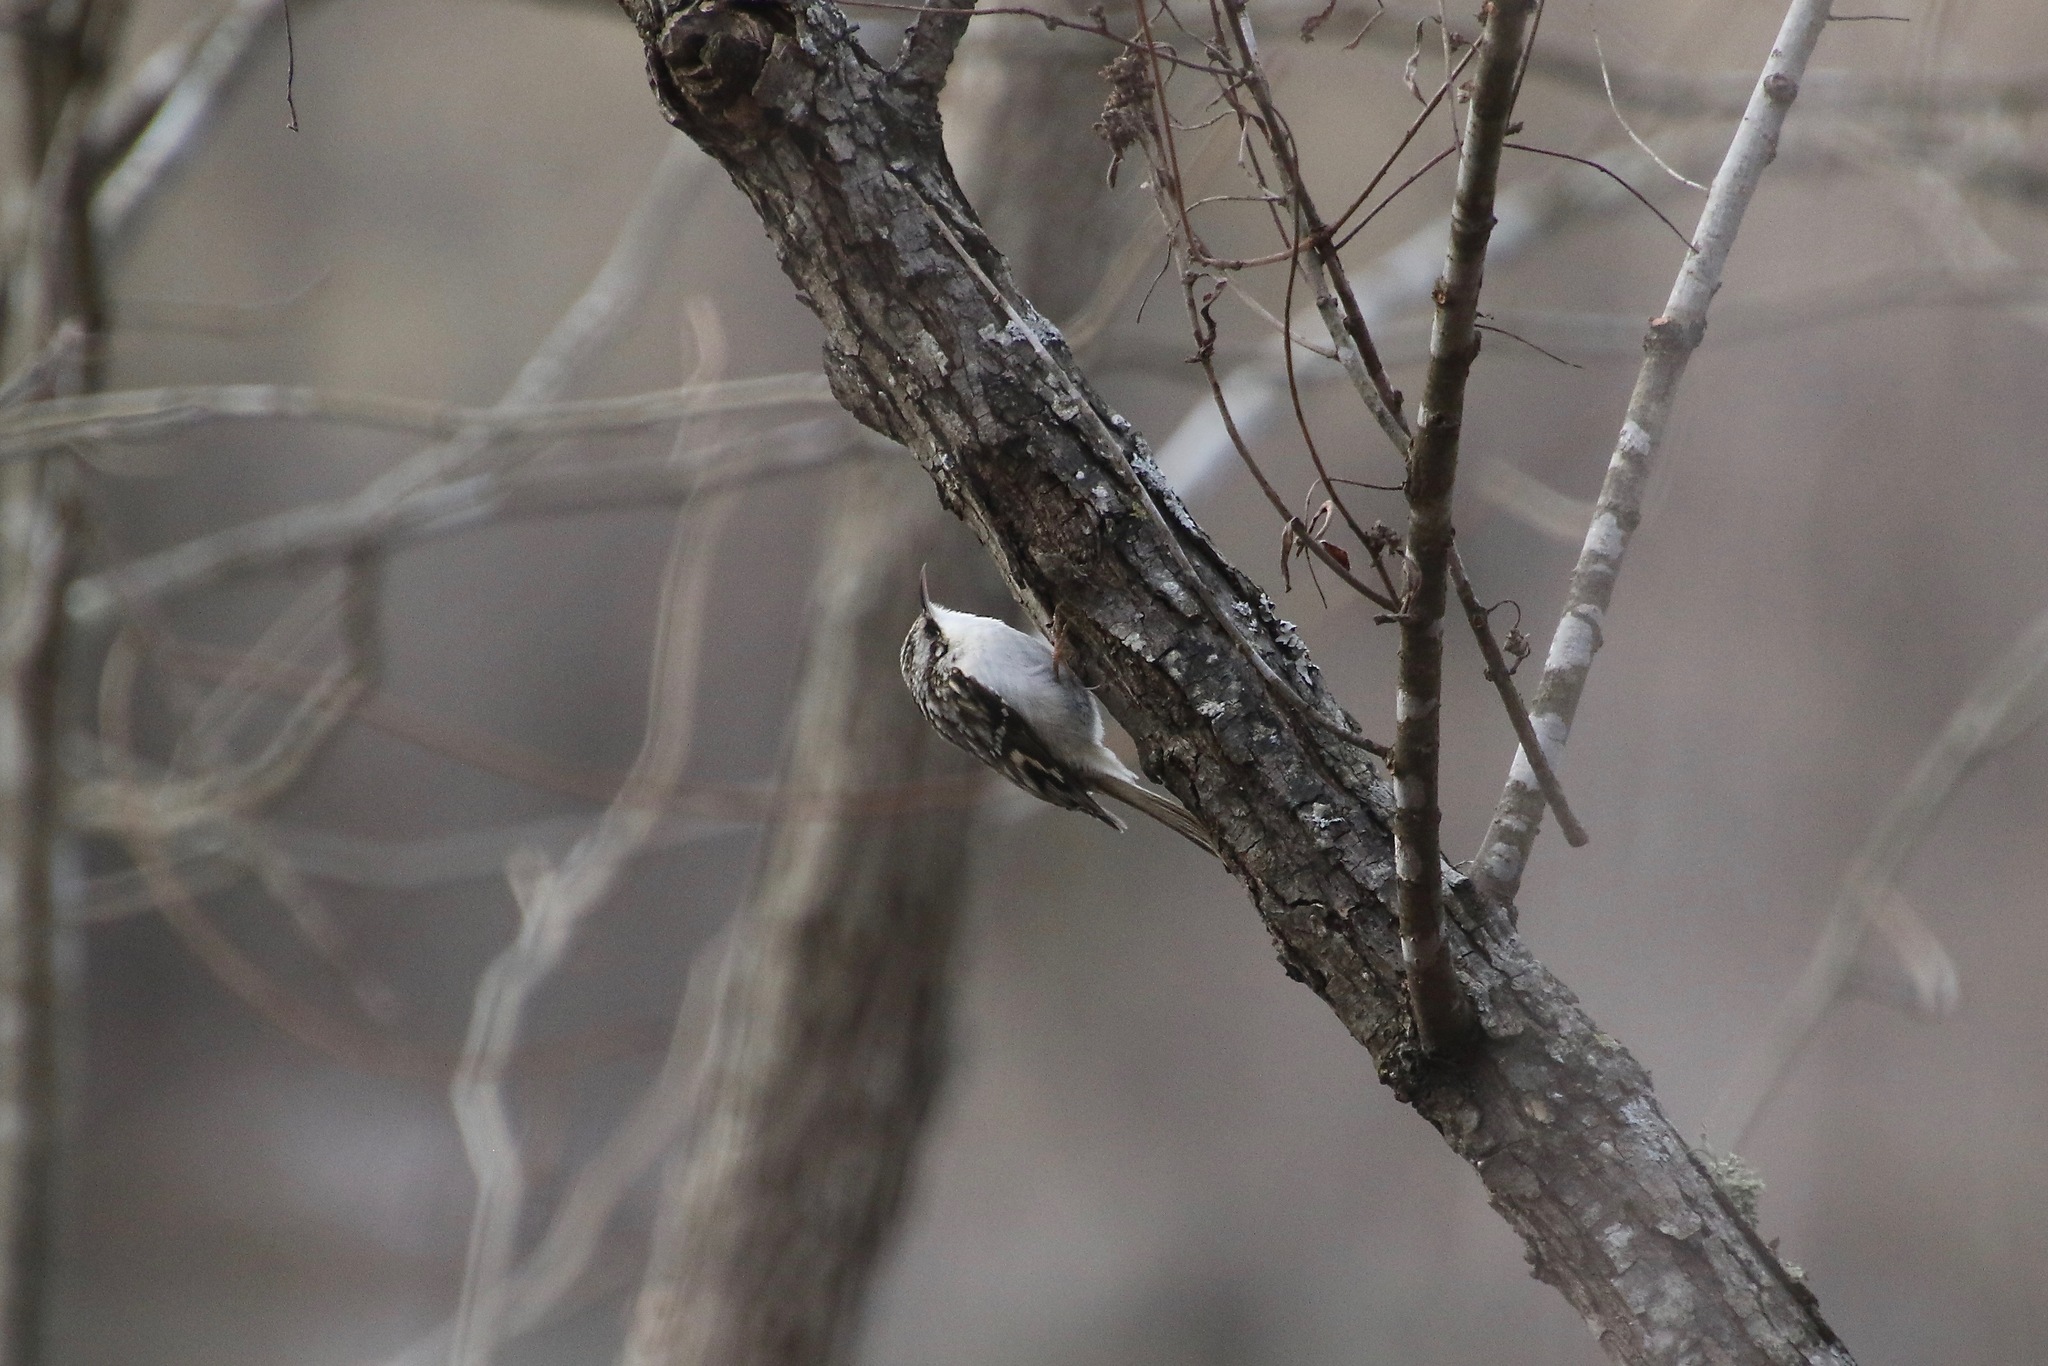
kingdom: Animalia
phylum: Chordata
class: Aves
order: Passeriformes
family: Certhiidae
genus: Certhia
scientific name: Certhia americana
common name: Brown creeper
